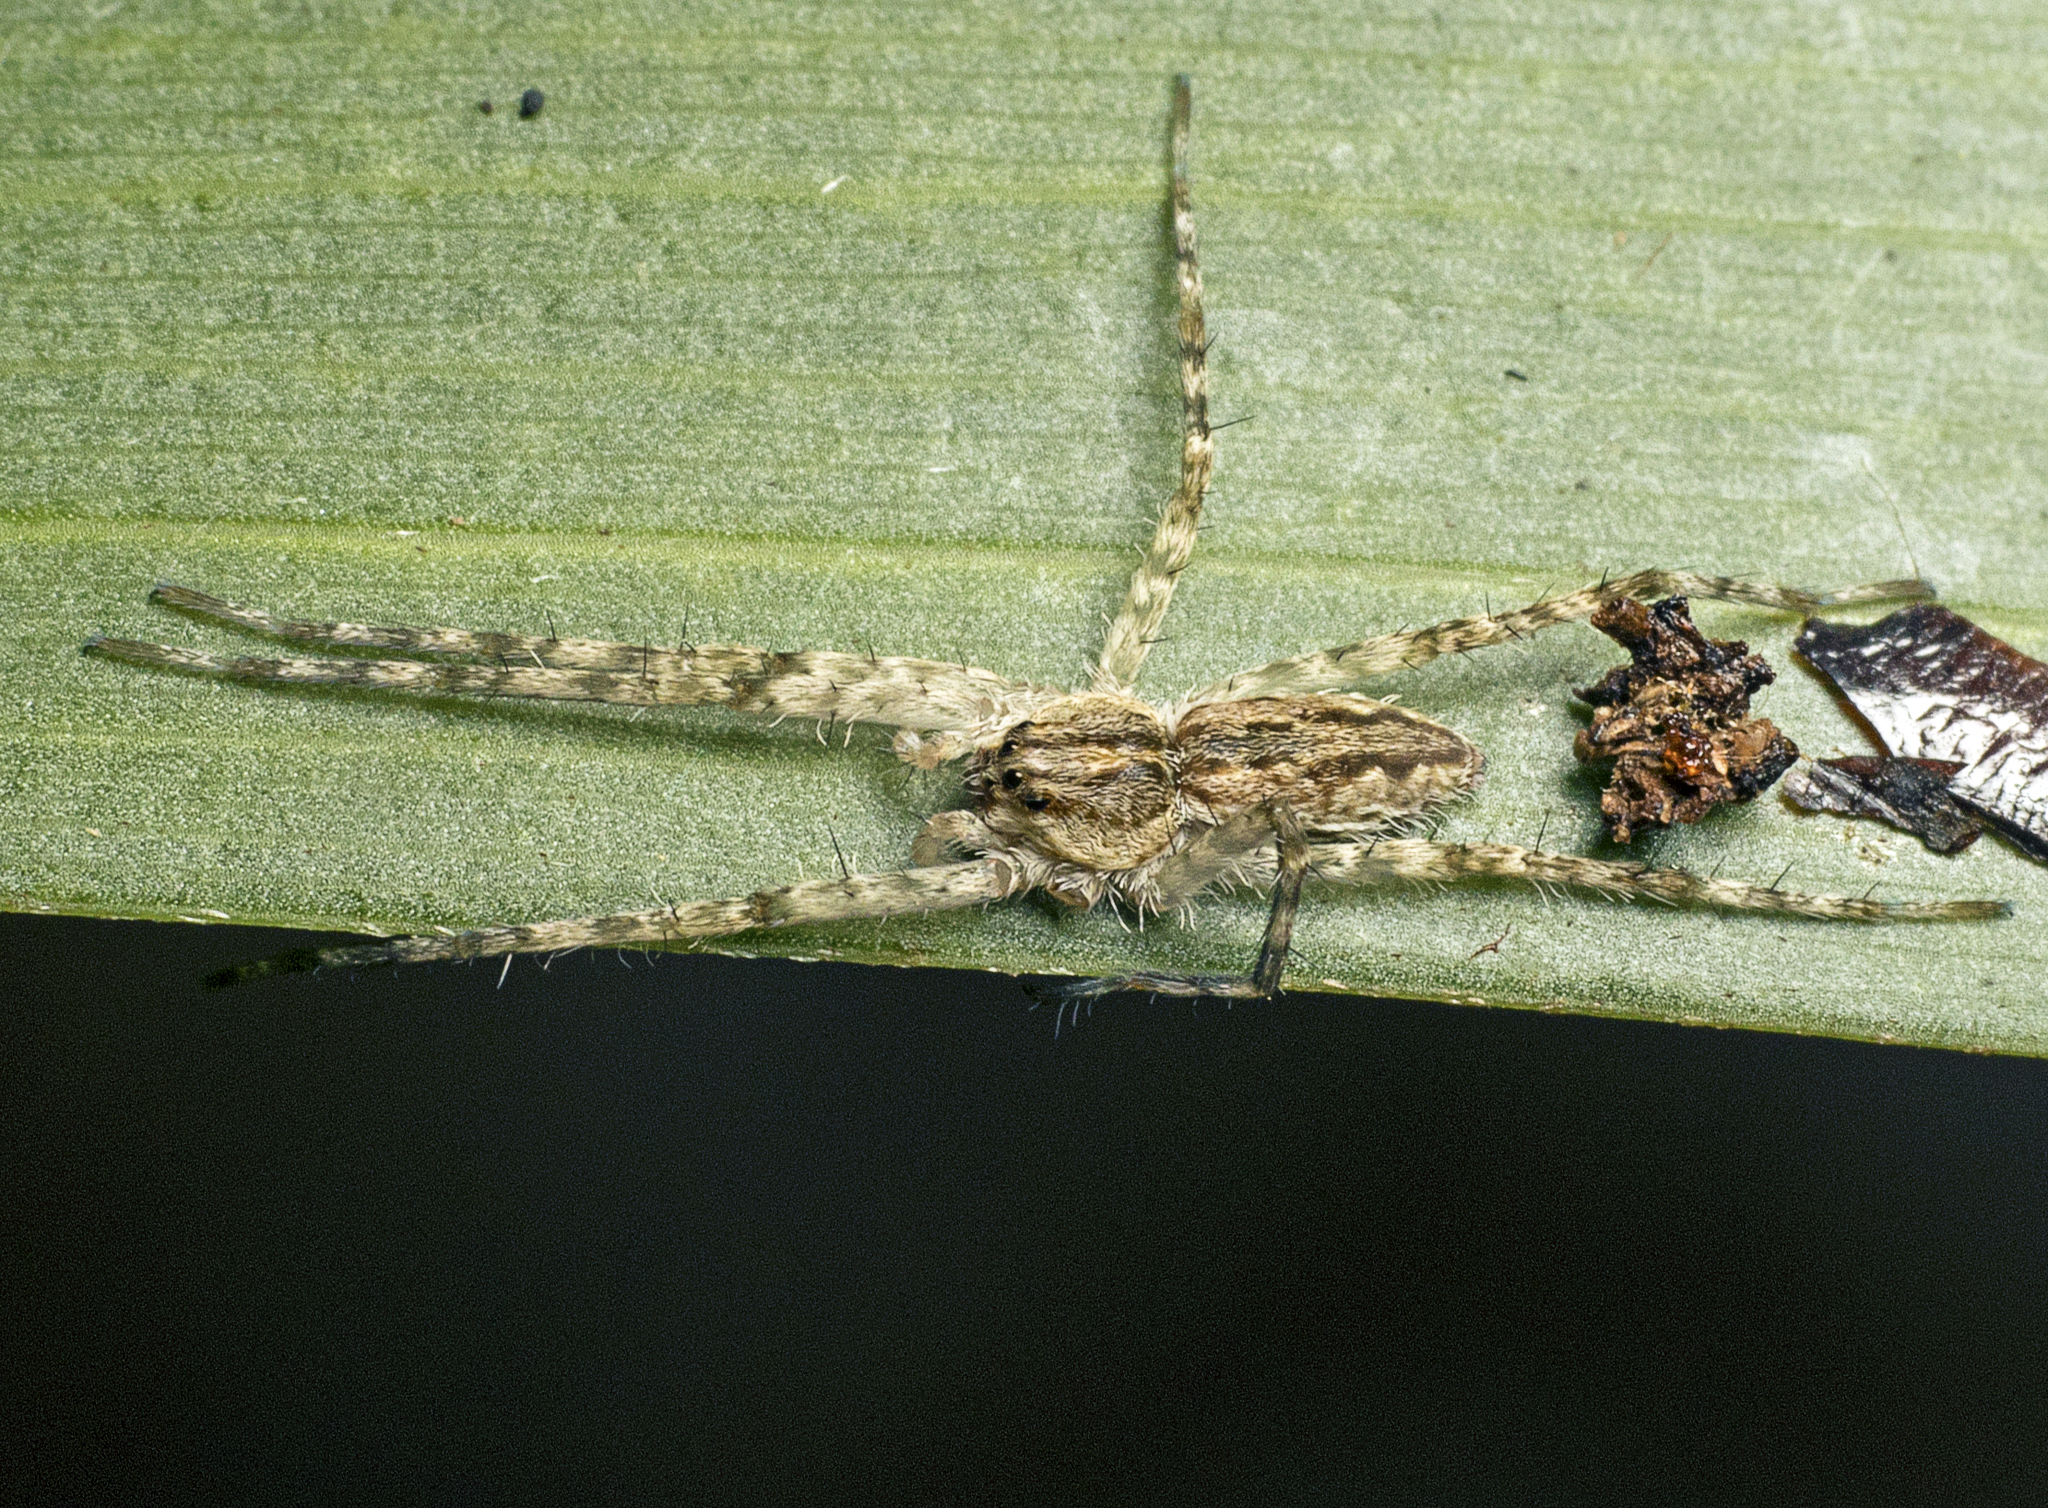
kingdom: Animalia
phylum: Arthropoda
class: Arachnida
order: Araneae
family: Pisauridae
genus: Megadolomedes
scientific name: Megadolomedes trux
